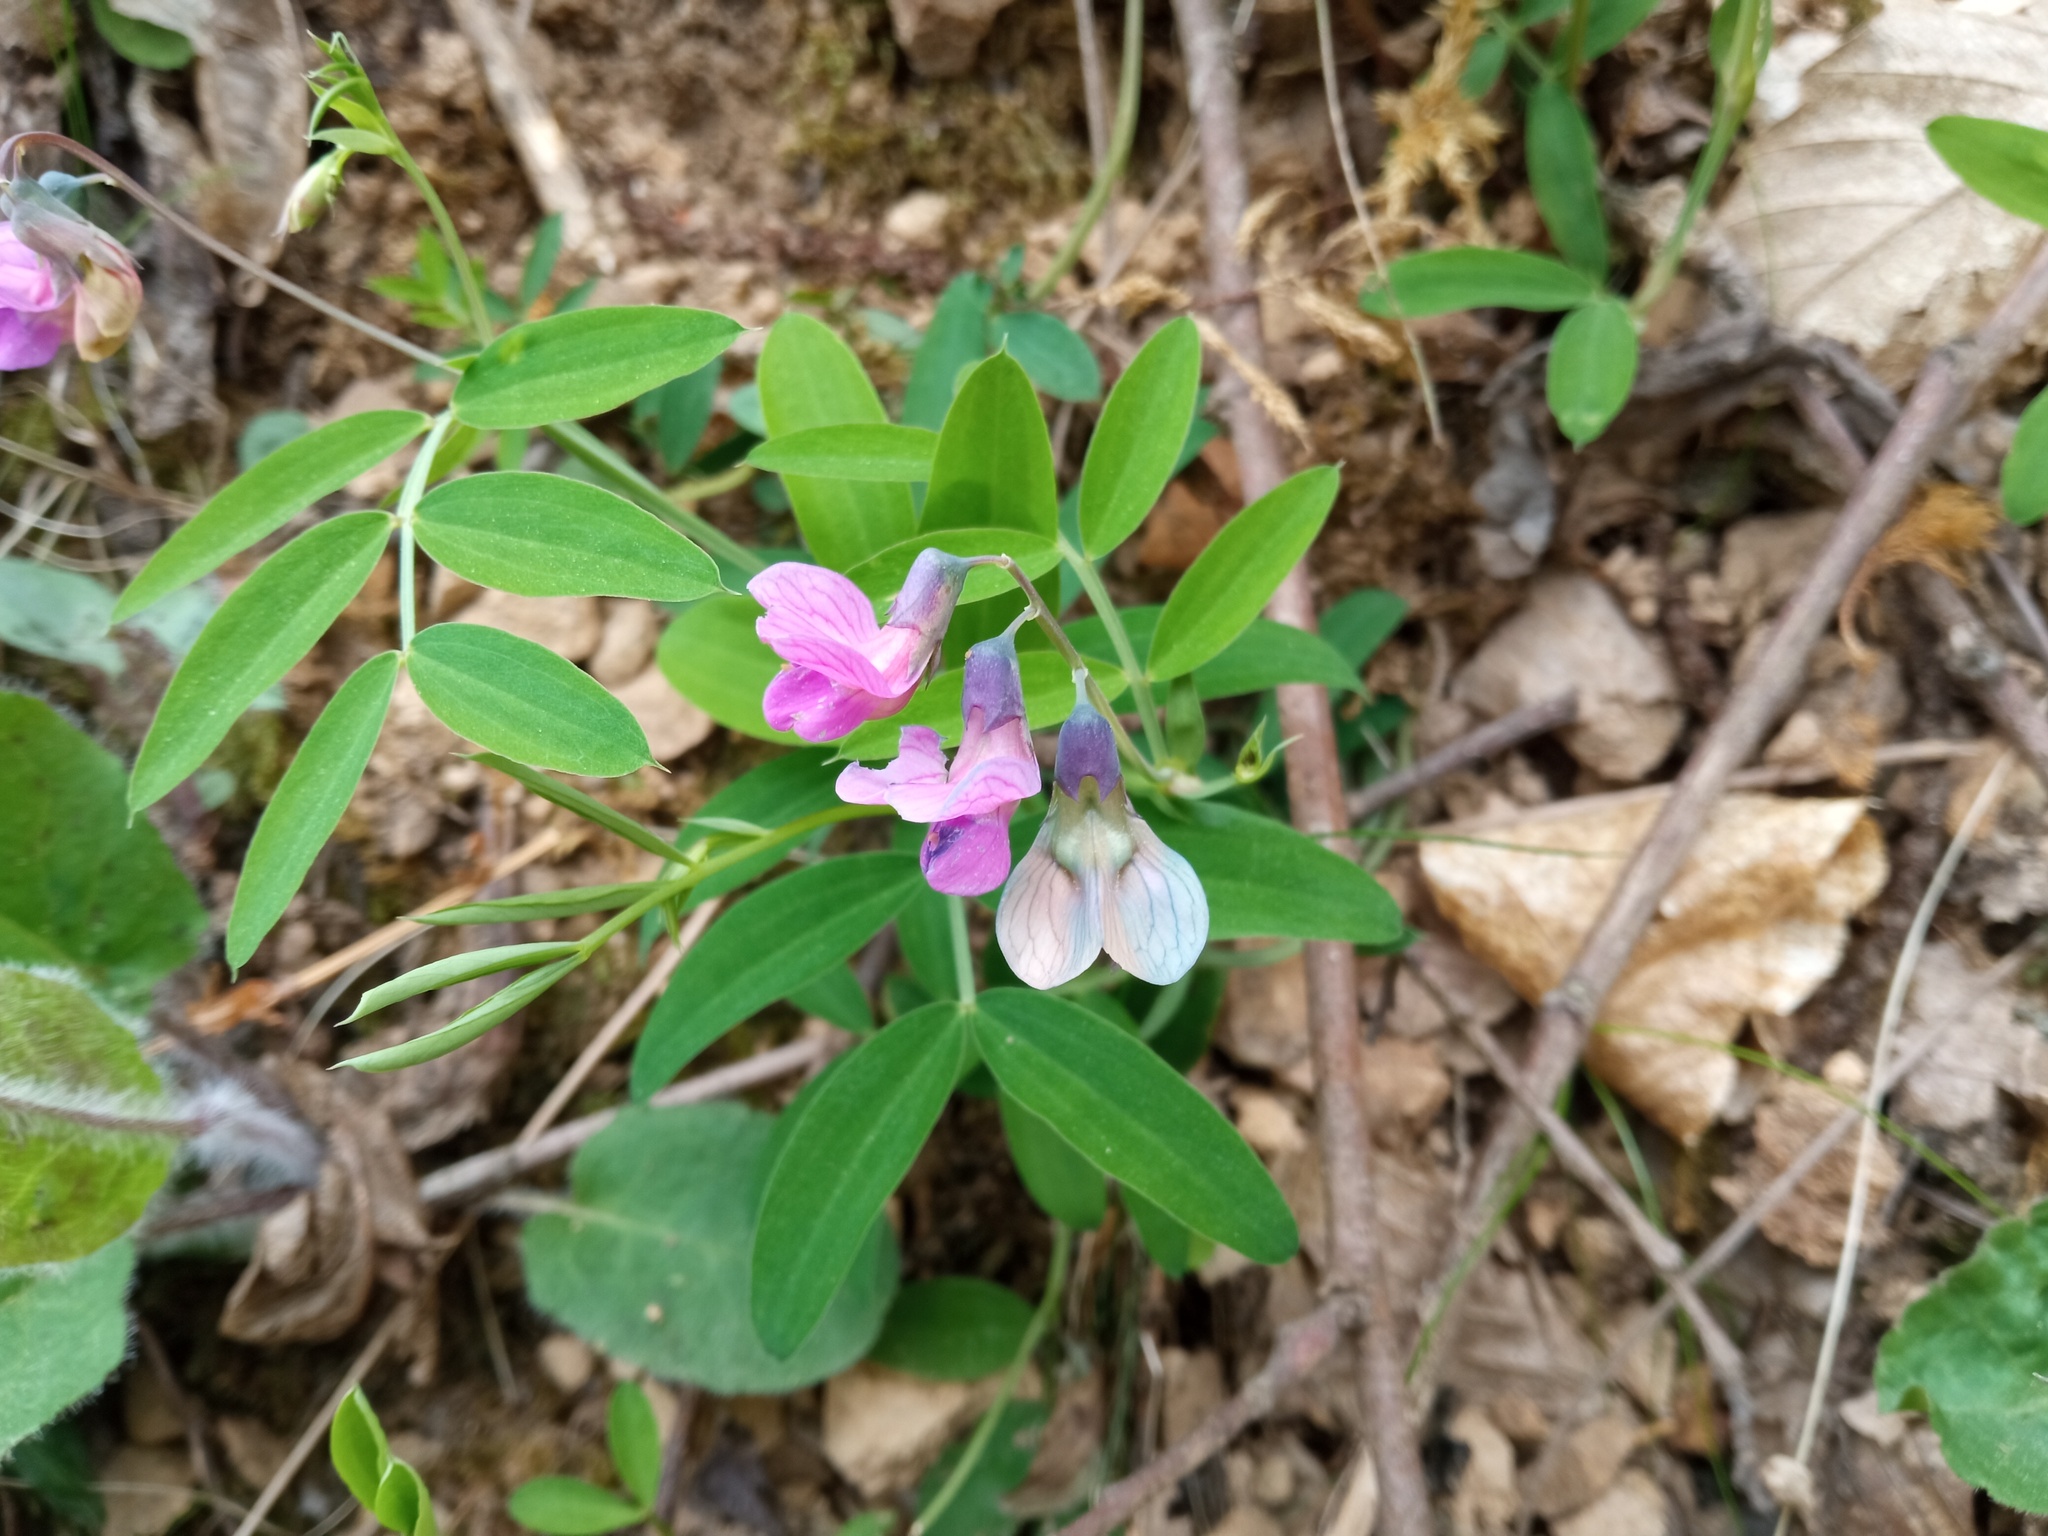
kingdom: Plantae
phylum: Tracheophyta
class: Magnoliopsida
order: Fabales
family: Fabaceae
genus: Lathyrus
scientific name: Lathyrus linifolius
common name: Bitter-vetch
